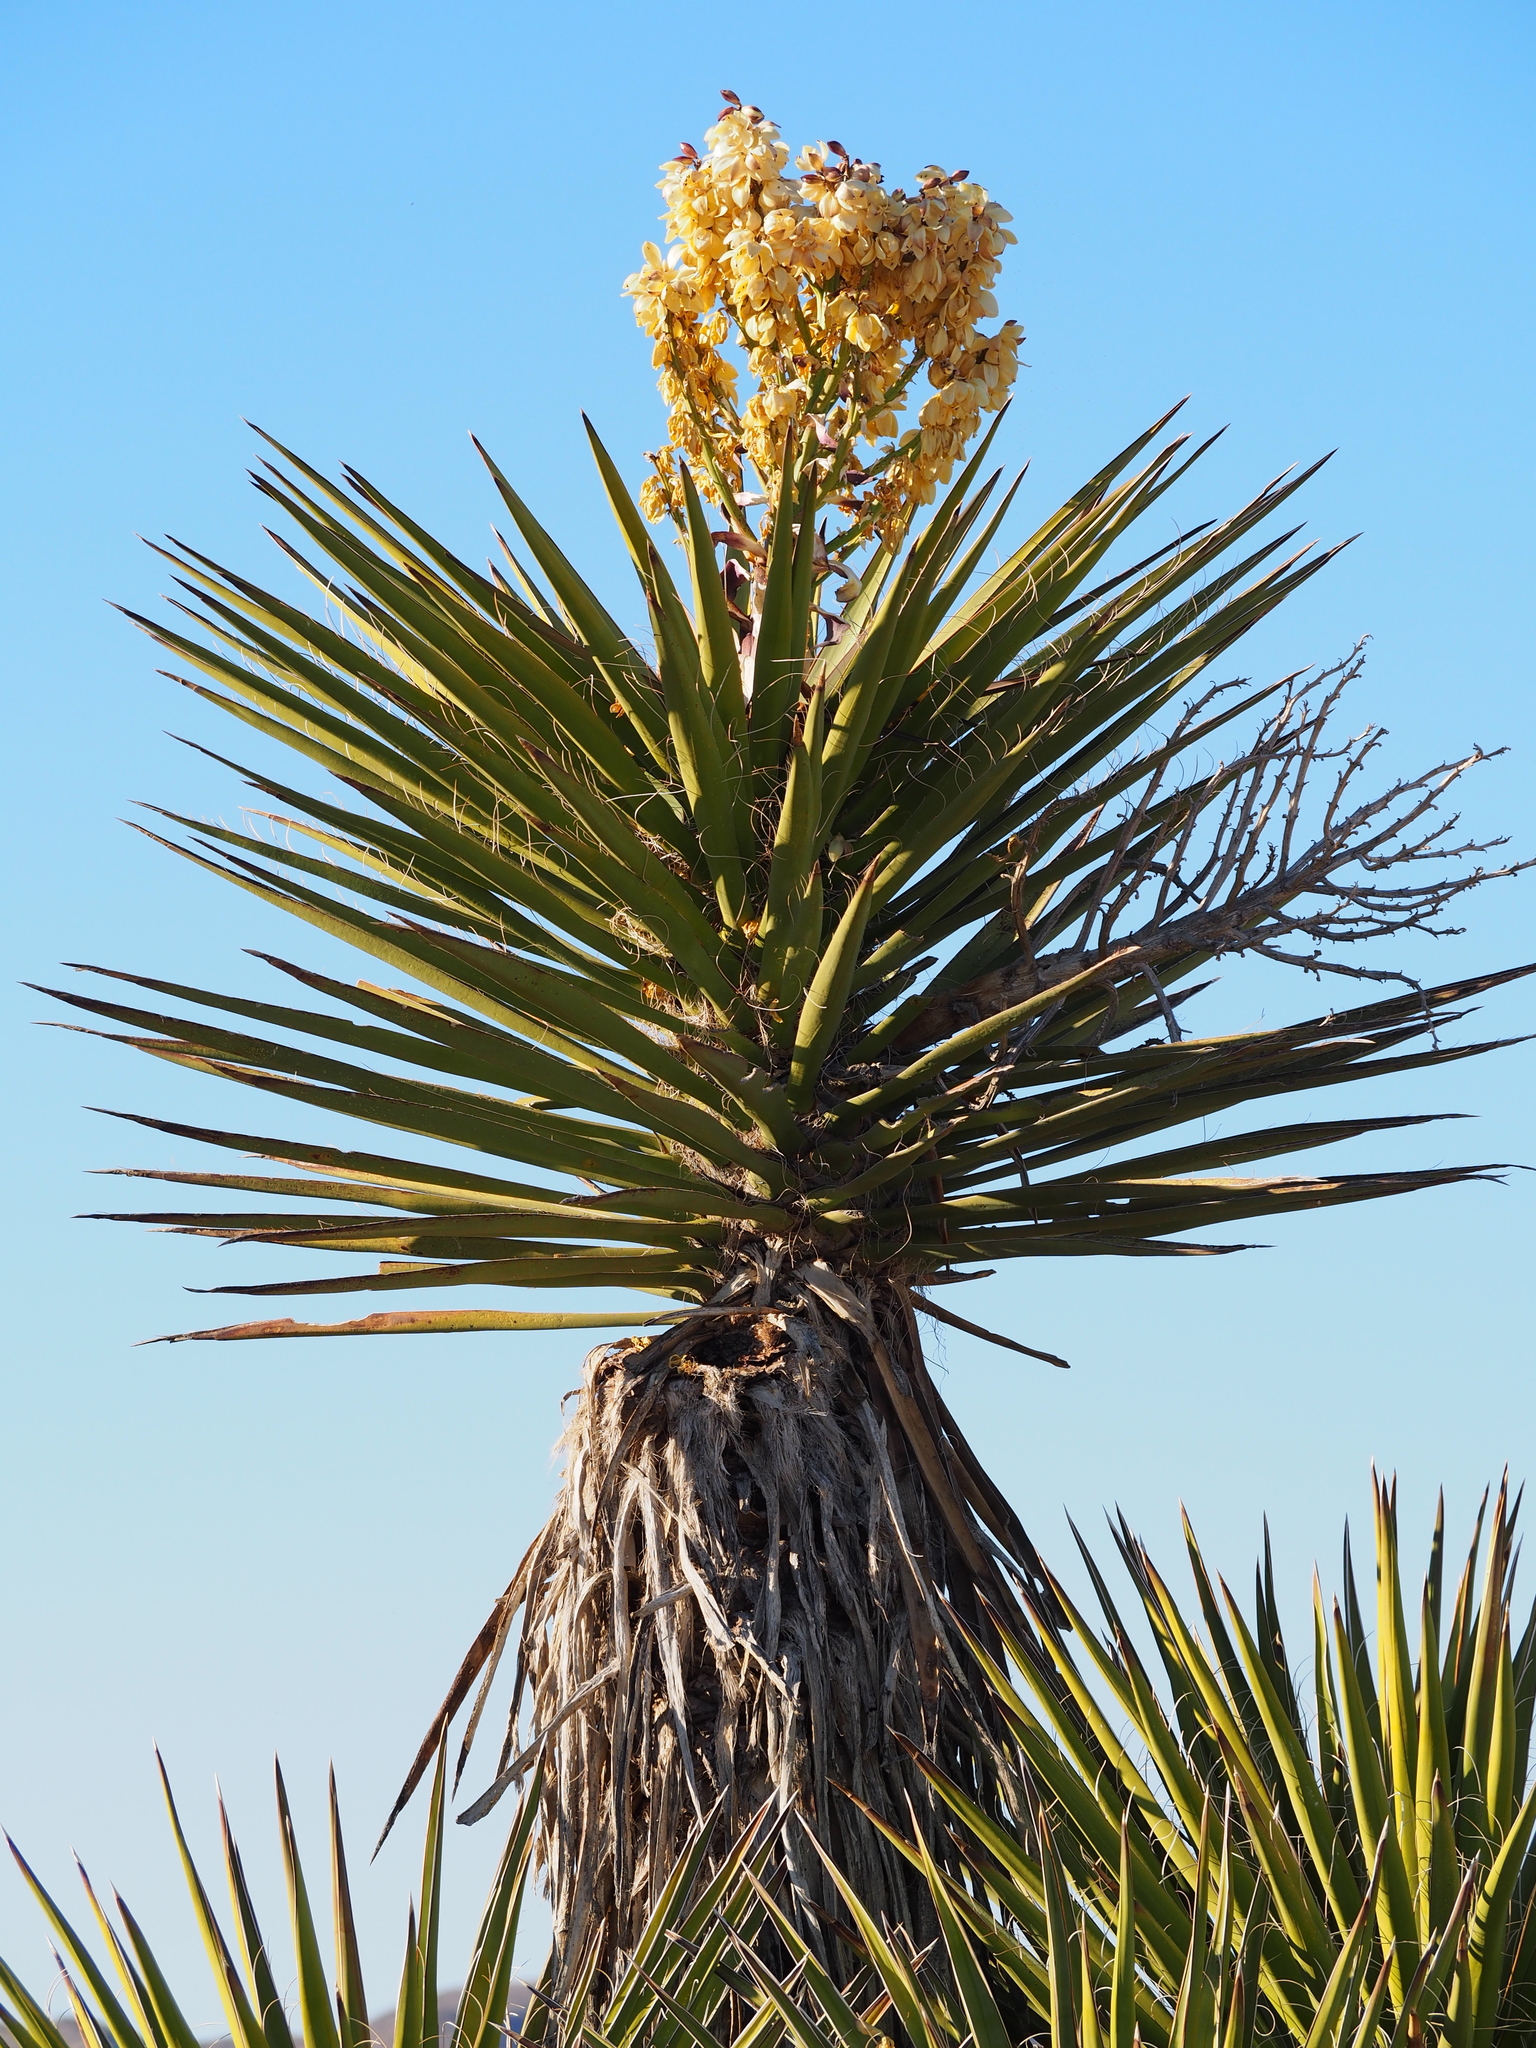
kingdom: Plantae
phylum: Tracheophyta
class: Liliopsida
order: Asparagales
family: Asparagaceae
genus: Yucca
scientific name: Yucca schidigera
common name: Mojave yucca
